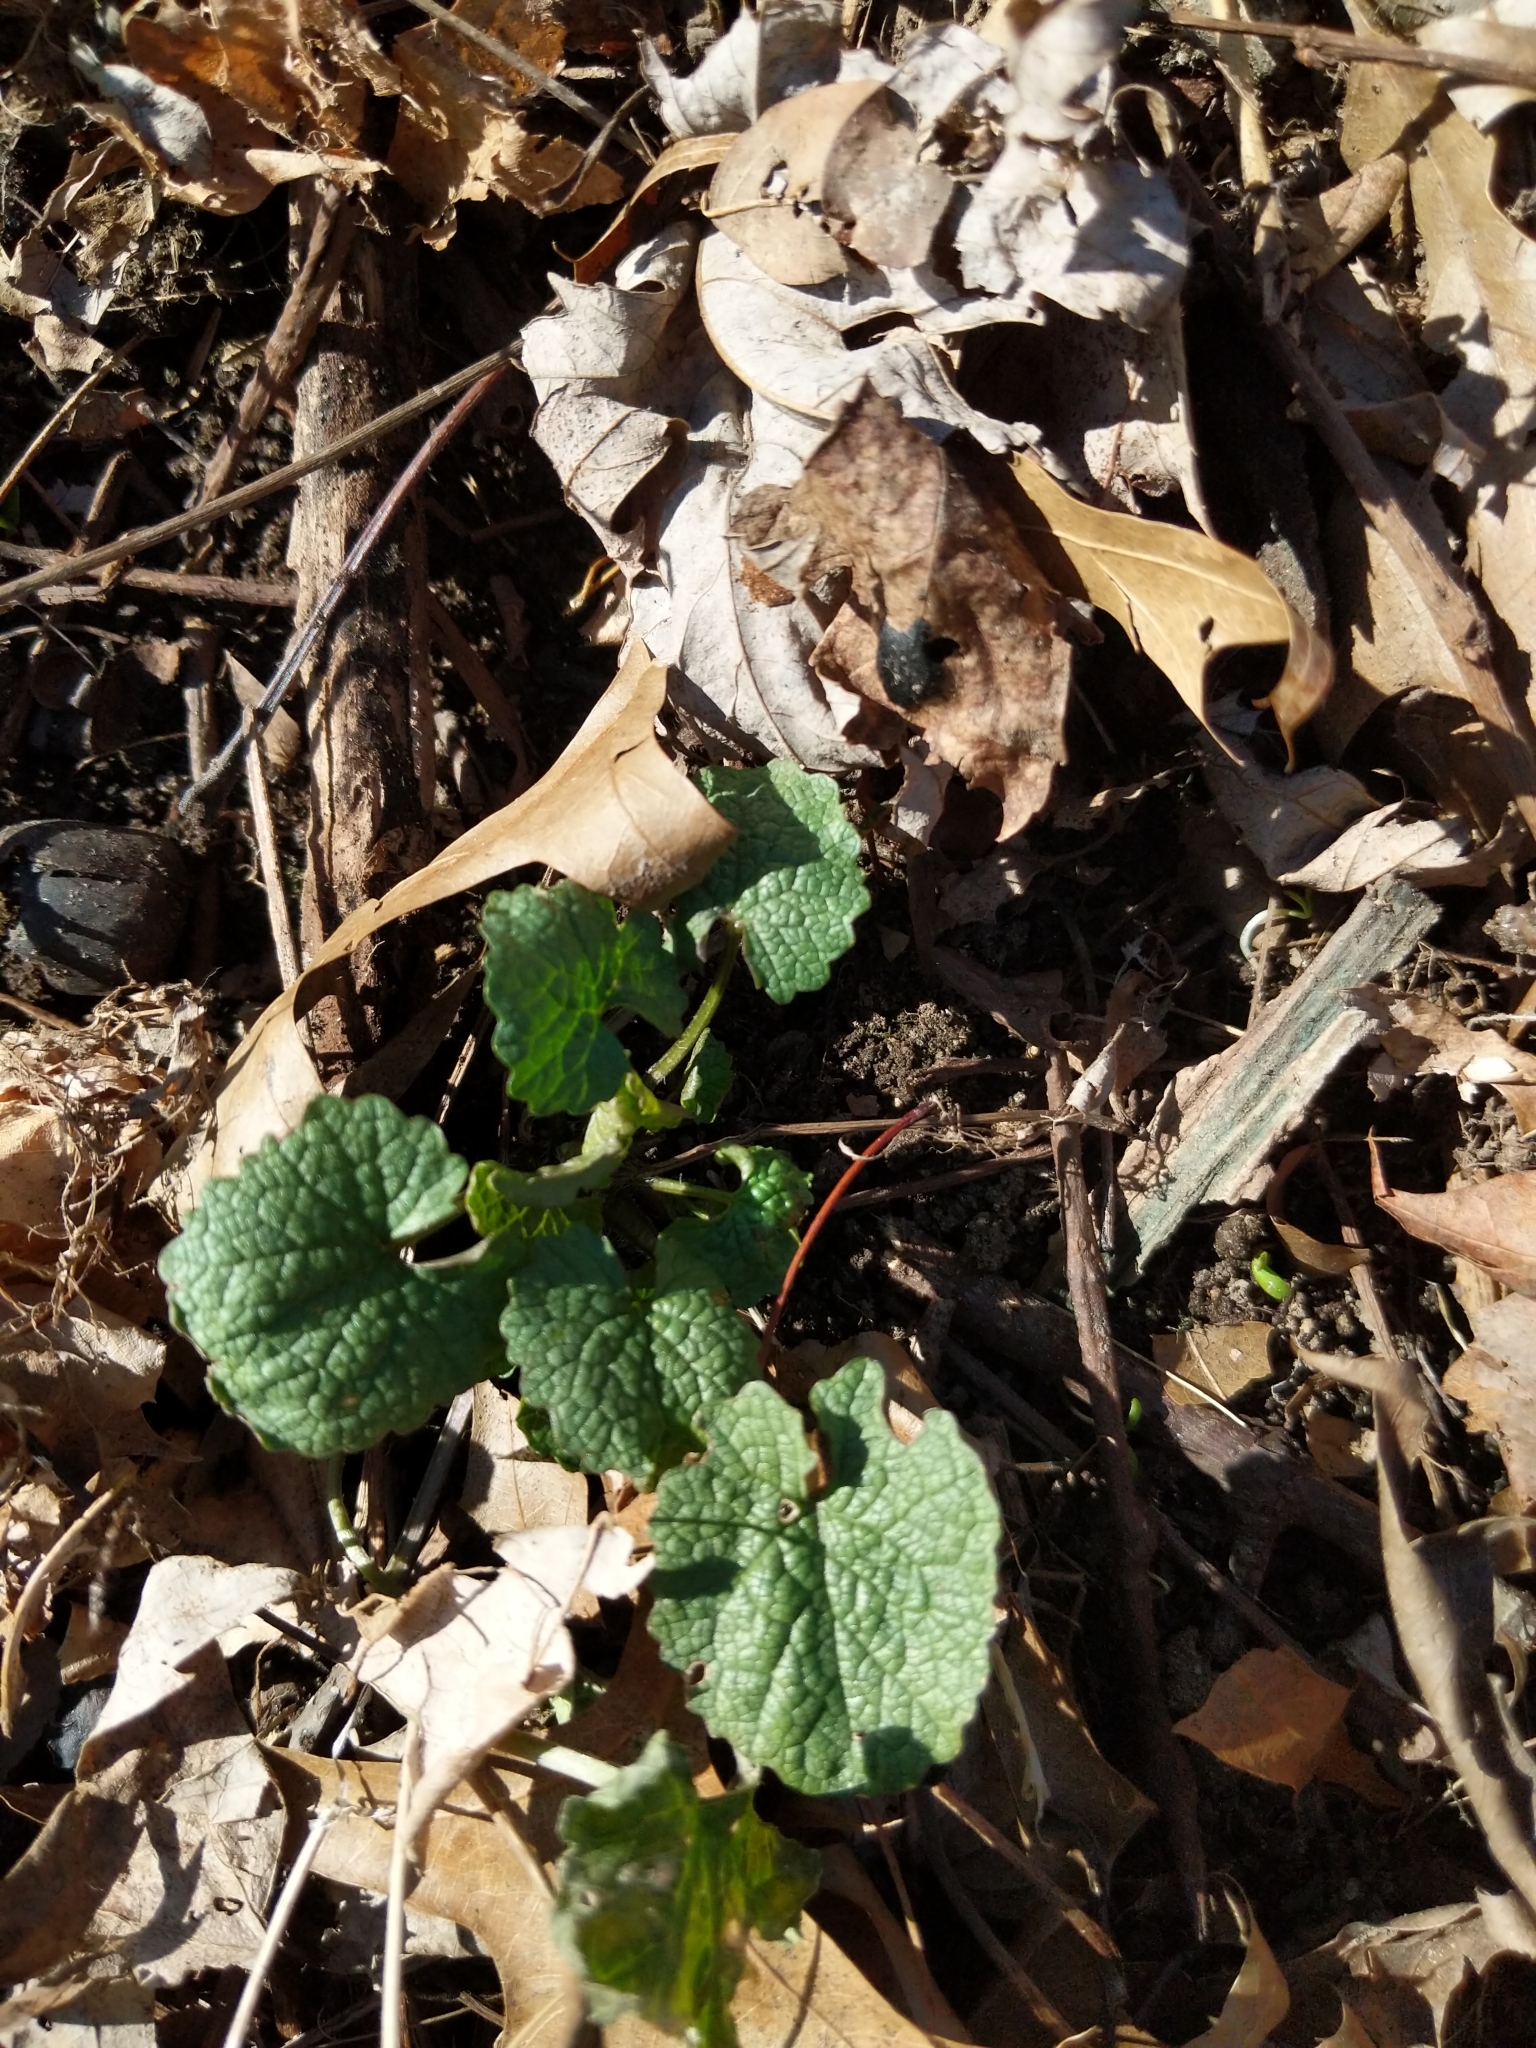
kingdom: Plantae
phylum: Tracheophyta
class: Magnoliopsida
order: Brassicales
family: Brassicaceae
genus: Alliaria
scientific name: Alliaria petiolata
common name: Garlic mustard
